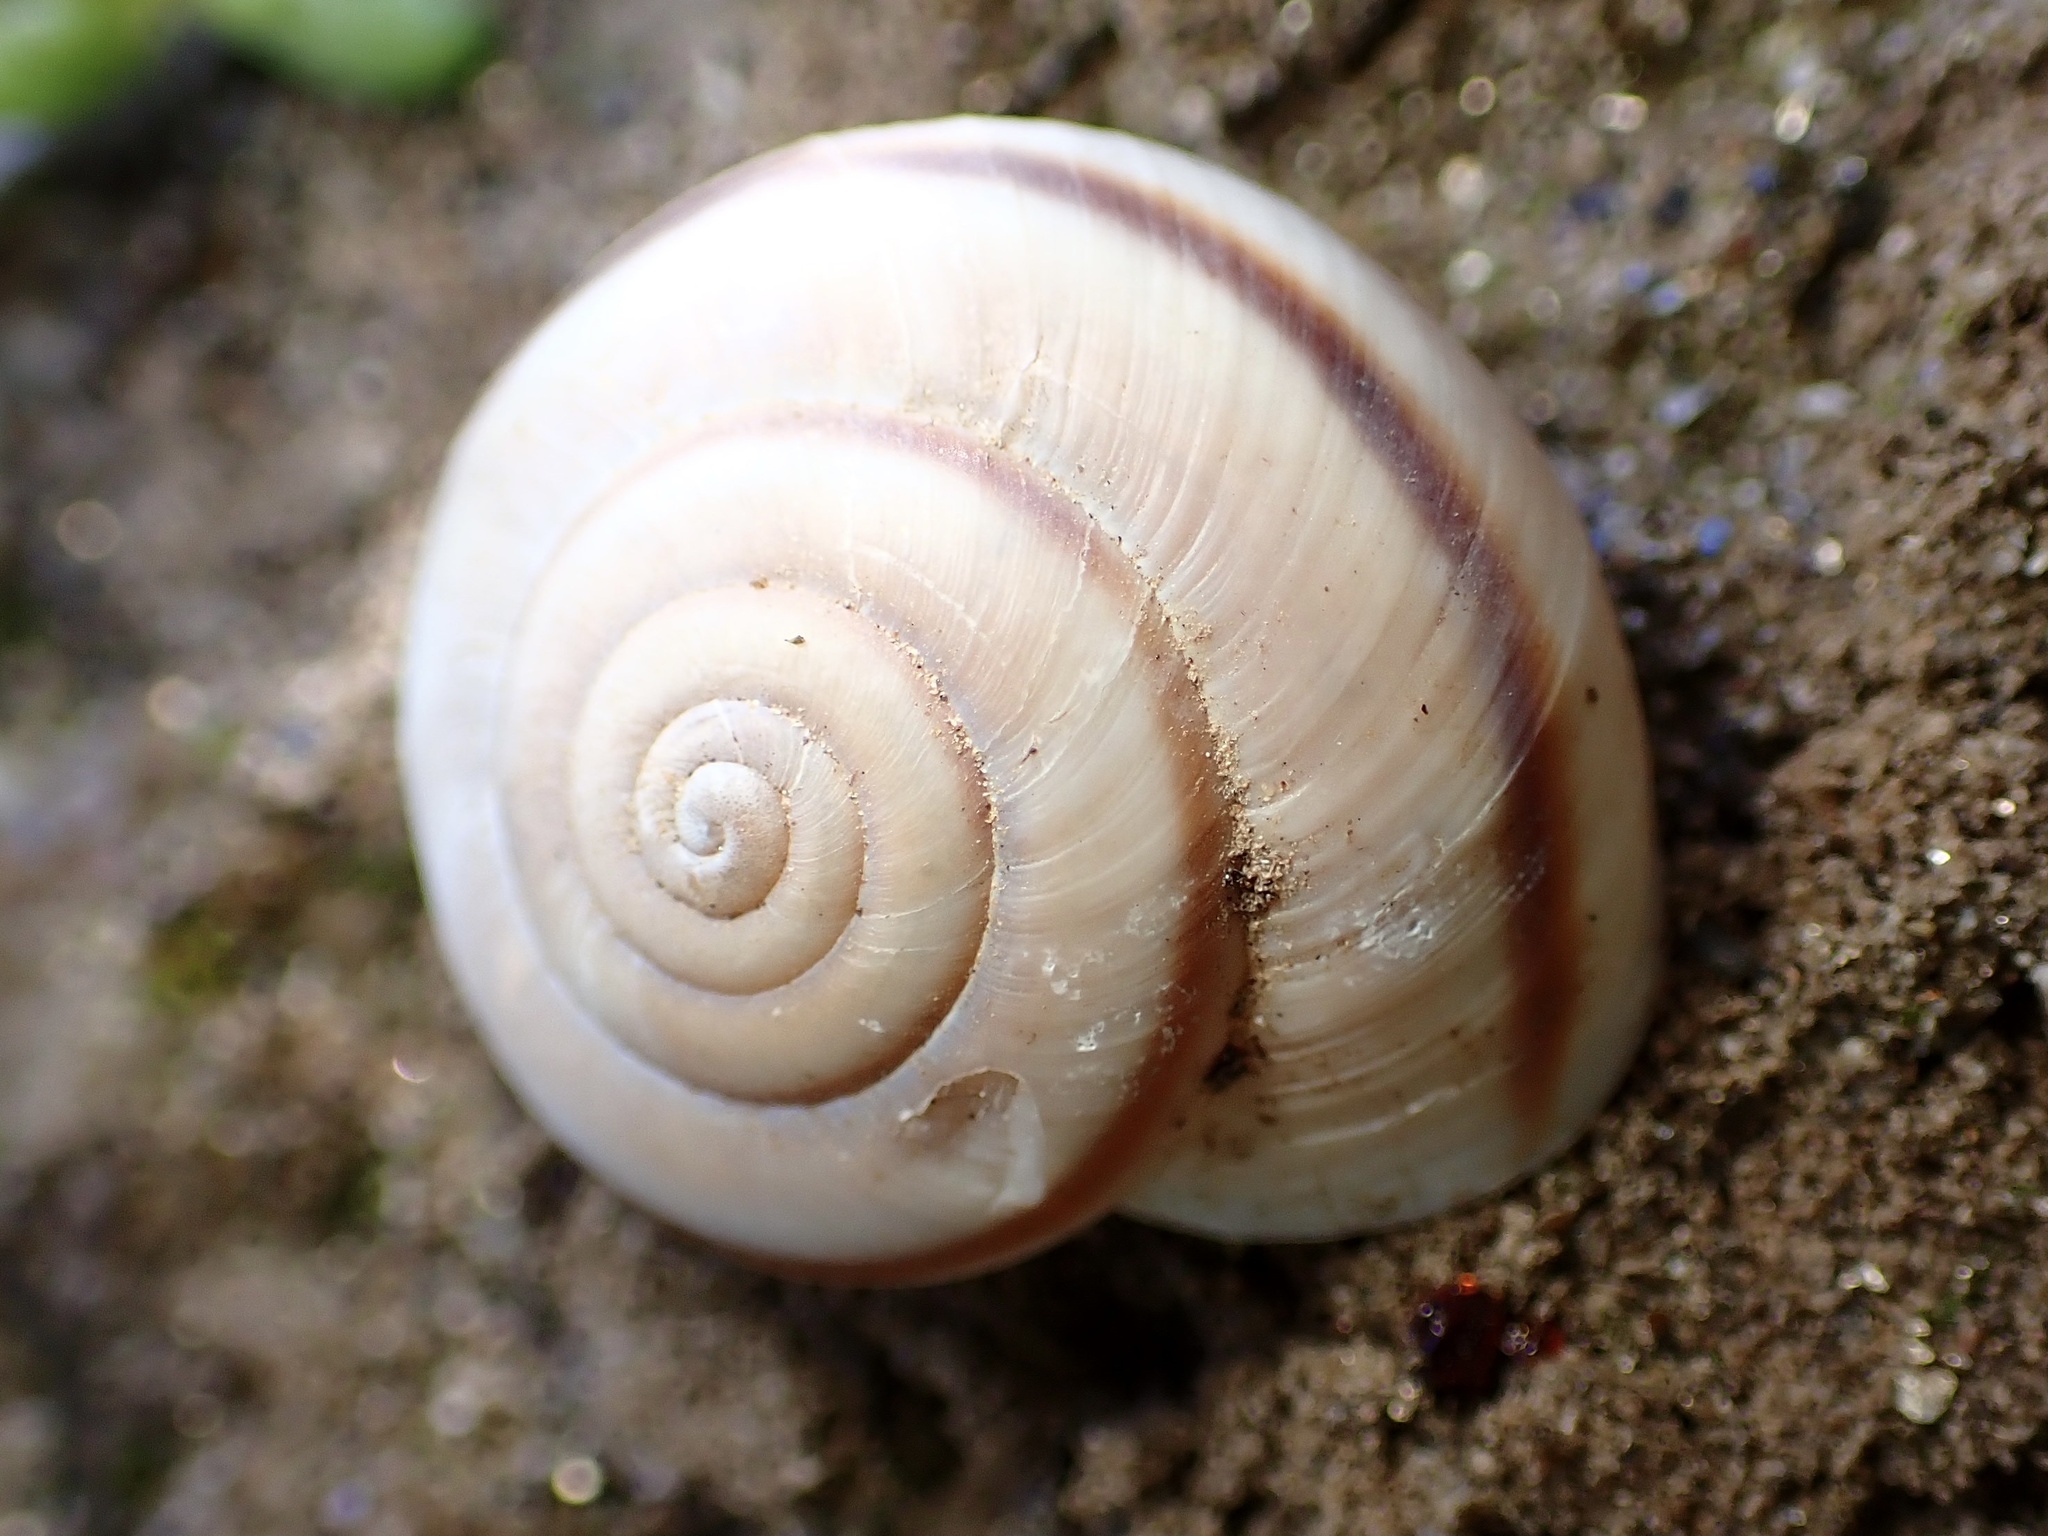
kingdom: Animalia
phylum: Mollusca
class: Gastropoda
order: Stylommatophora
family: Xanthonychidae
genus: Sonorelix
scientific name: Sonorelix borregoensis
